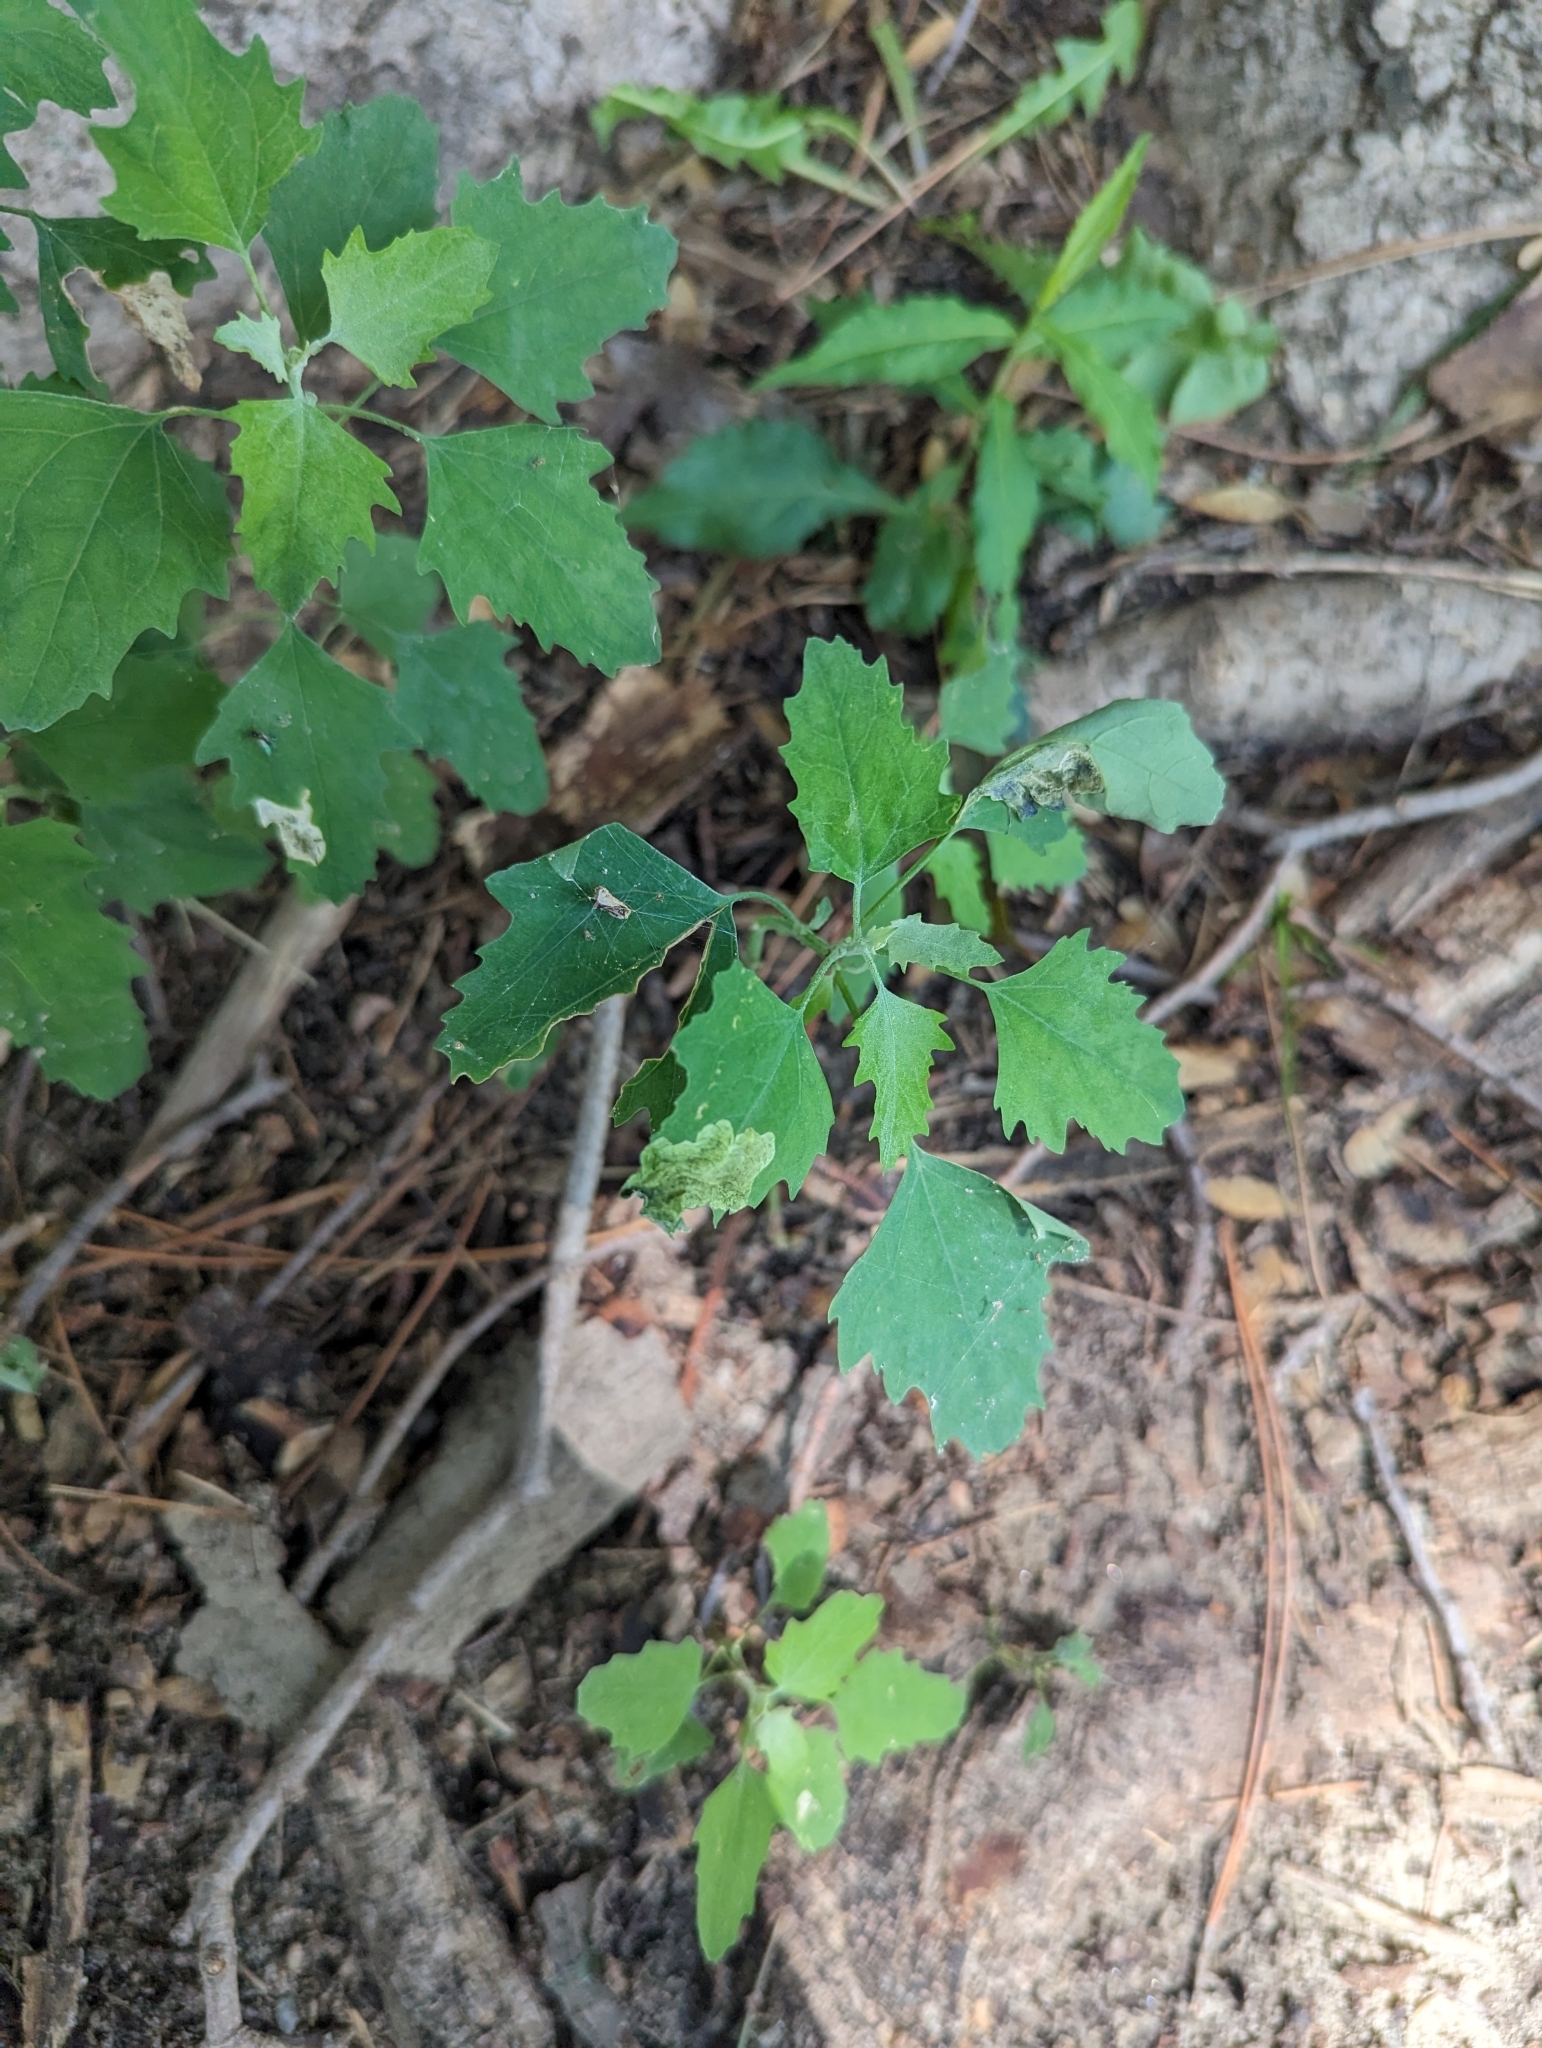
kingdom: Plantae
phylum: Tracheophyta
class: Magnoliopsida
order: Caryophyllales
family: Amaranthaceae
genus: Chenopodium
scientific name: Chenopodium album
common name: Fat-hen
